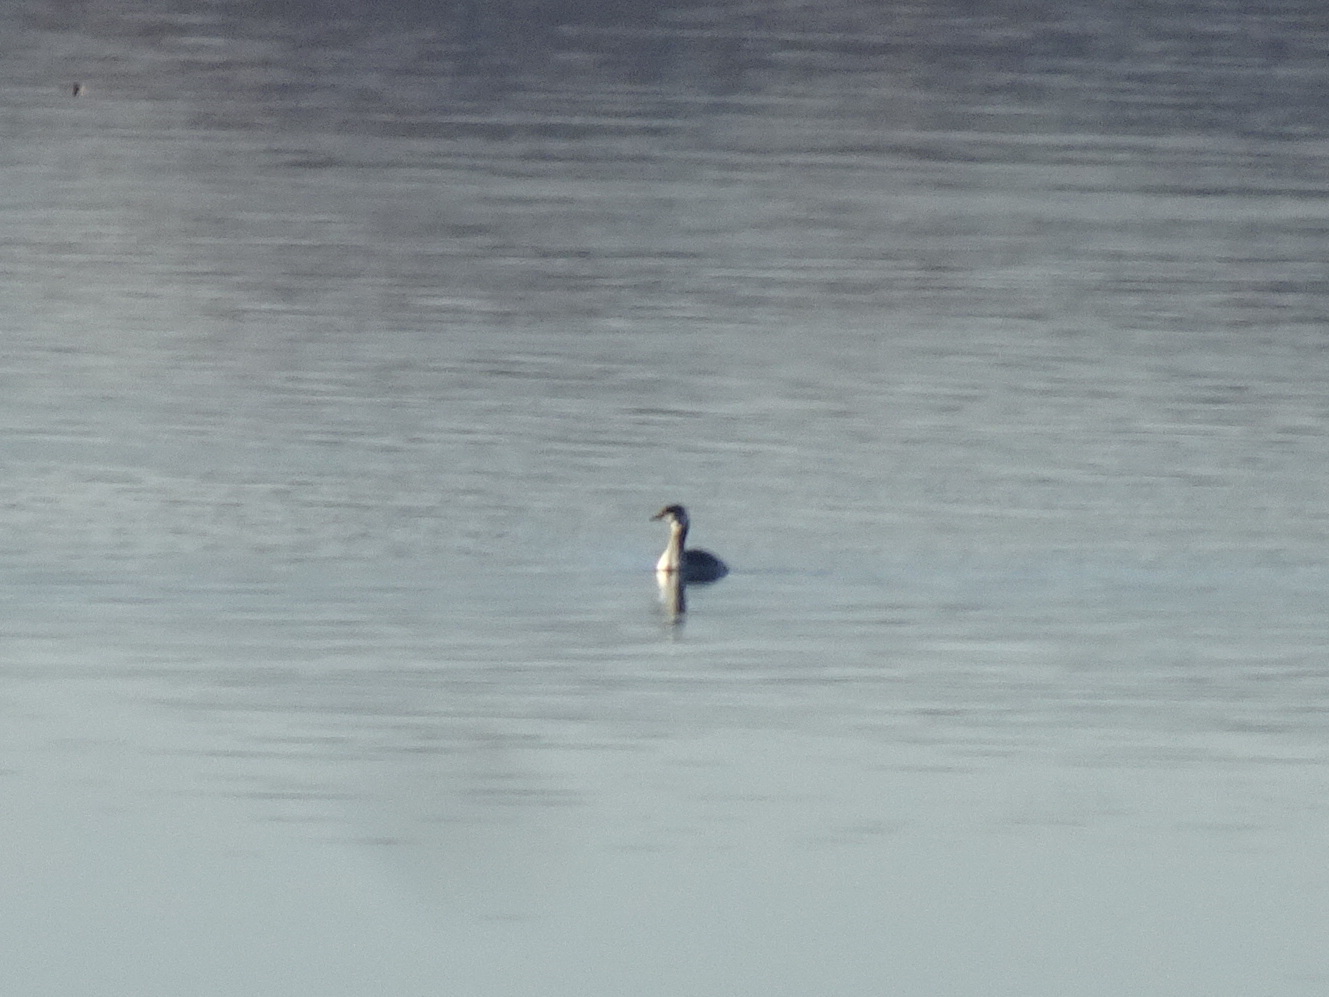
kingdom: Animalia
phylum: Chordata
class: Aves
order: Podicipediformes
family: Podicipedidae
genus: Podiceps
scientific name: Podiceps auritus
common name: Horned grebe
